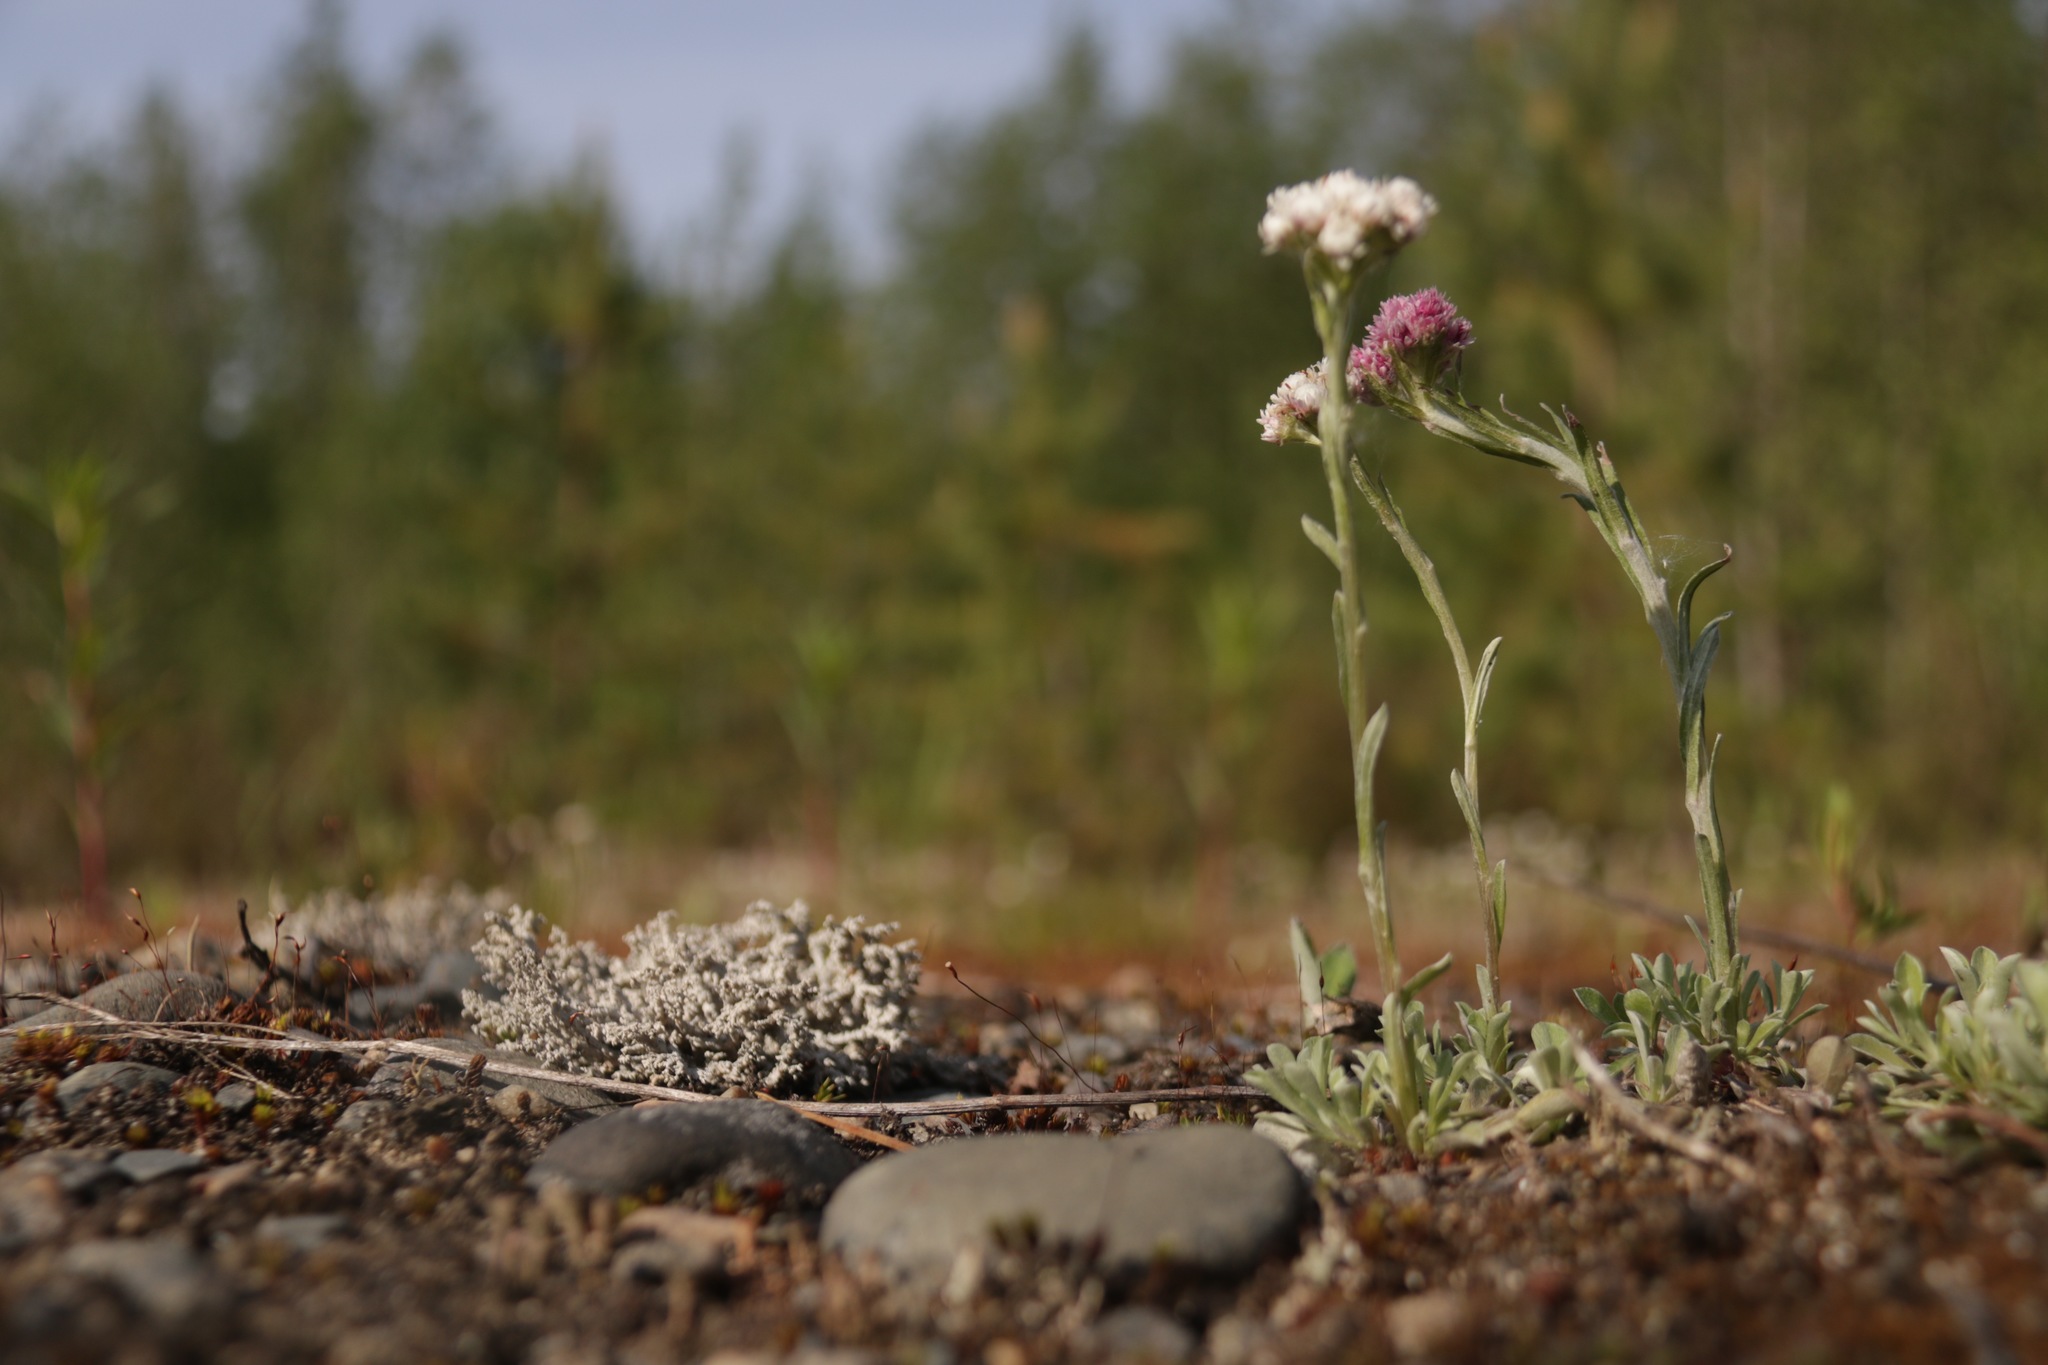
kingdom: Plantae
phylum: Tracheophyta
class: Magnoliopsida
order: Asterales
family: Asteraceae
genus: Antennaria
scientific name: Antennaria dioica
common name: Mountain everlasting
